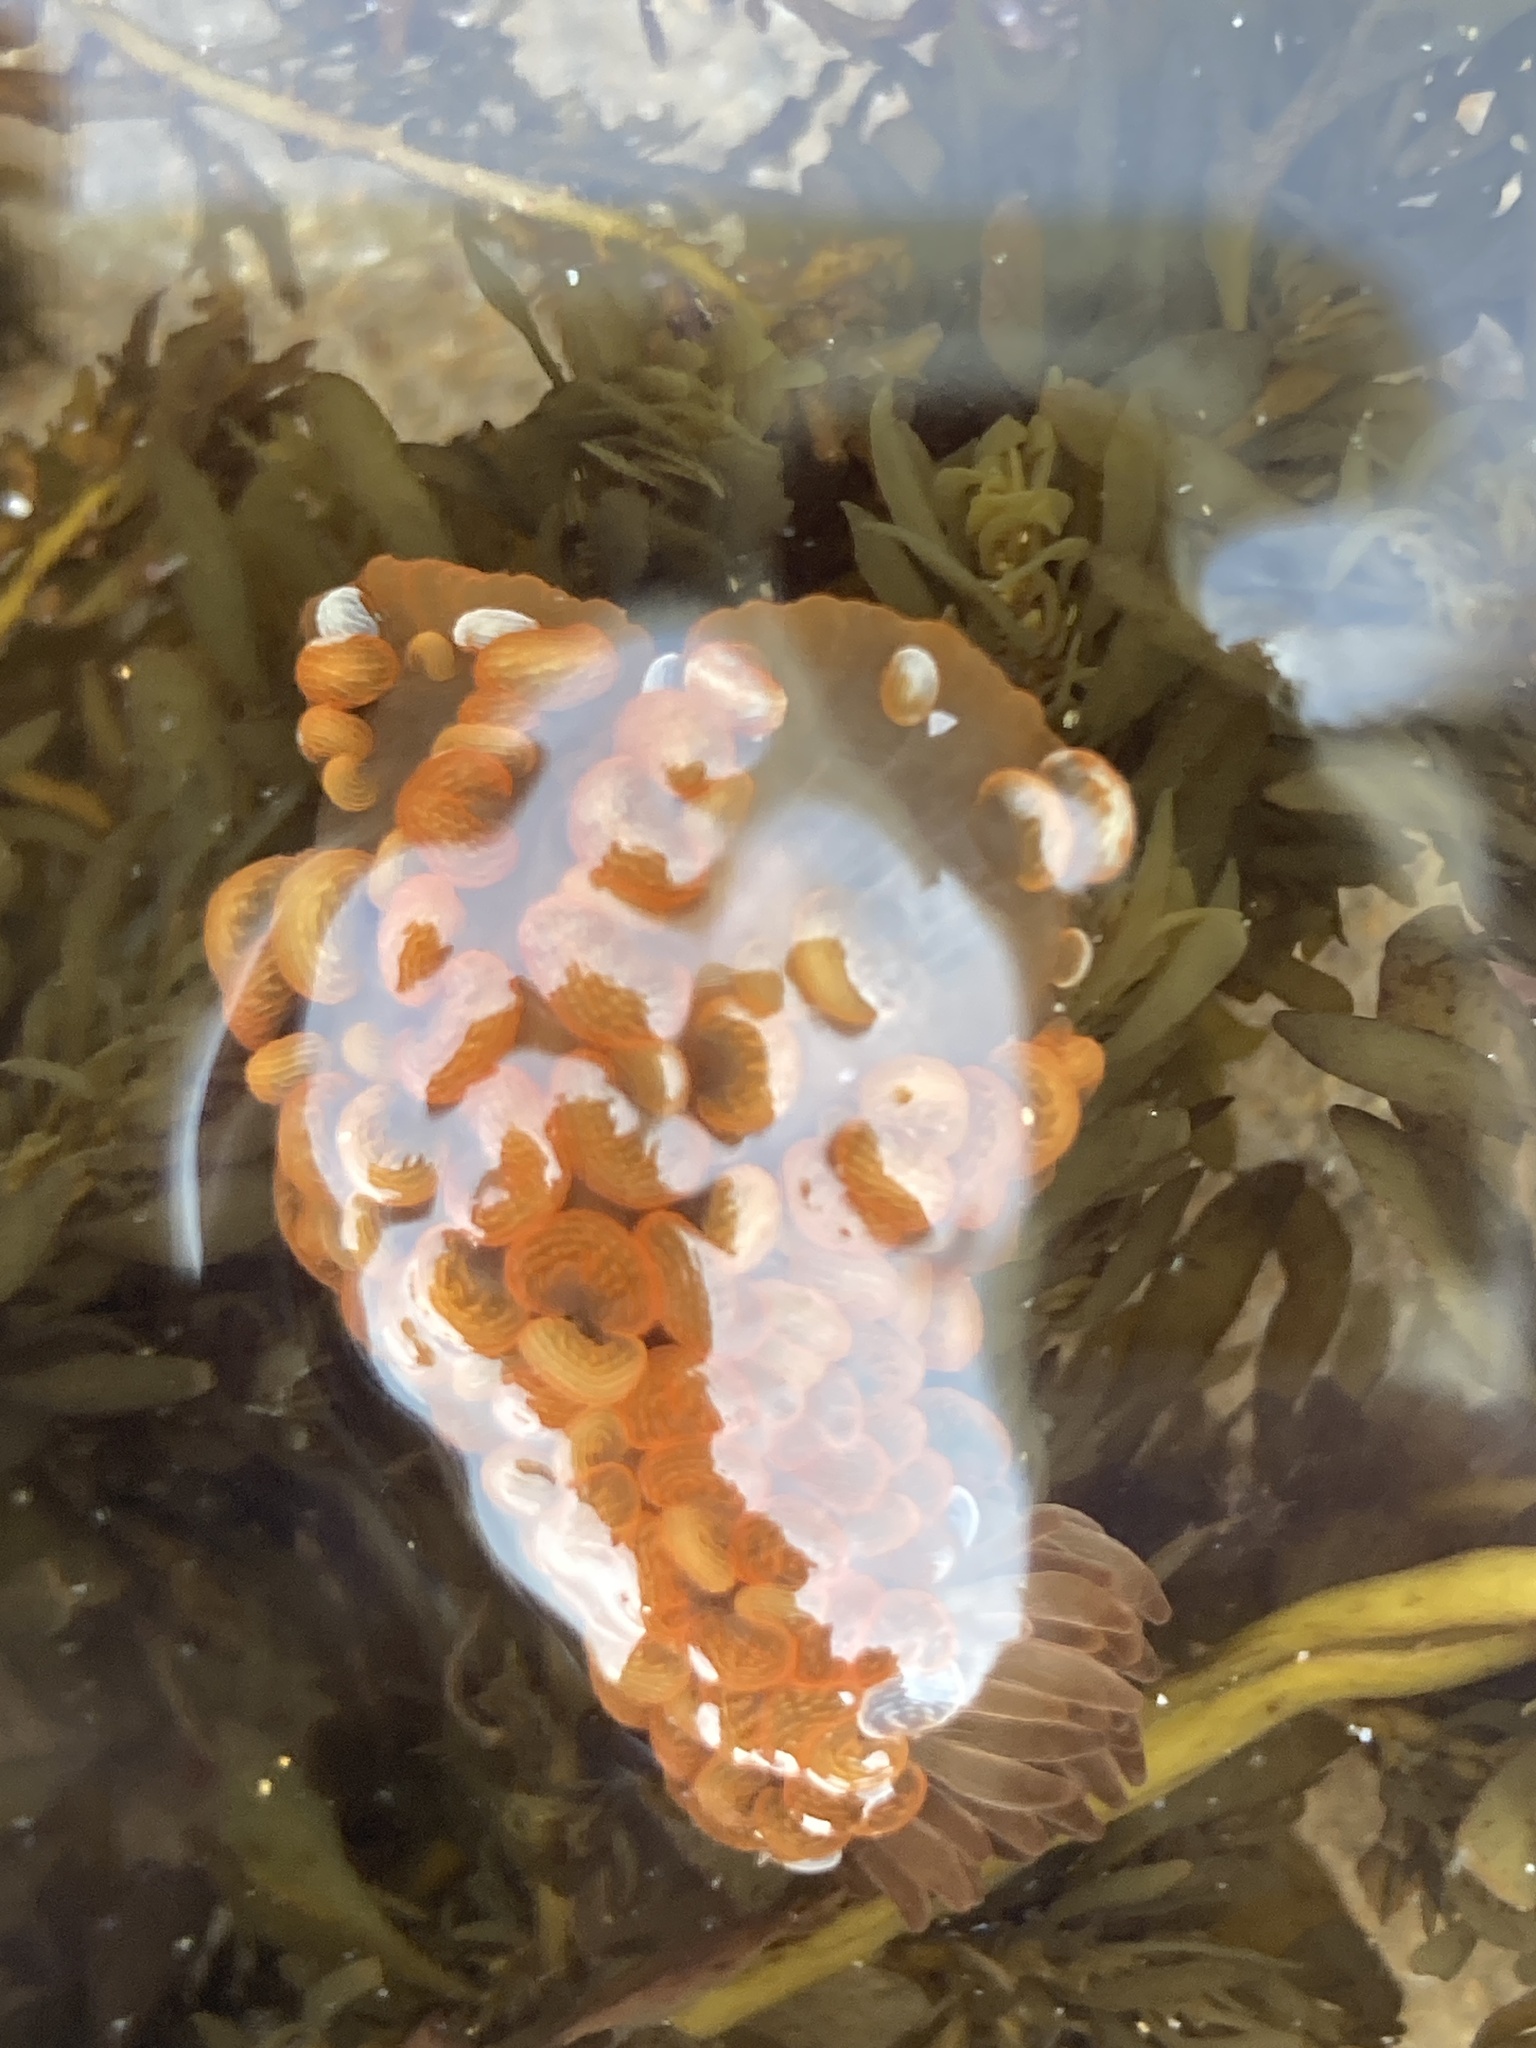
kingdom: Animalia
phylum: Cnidaria
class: Anthozoa
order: Actiniaria
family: Actiniidae
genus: Phlyctenactis
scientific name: Phlyctenactis tuberculosa
